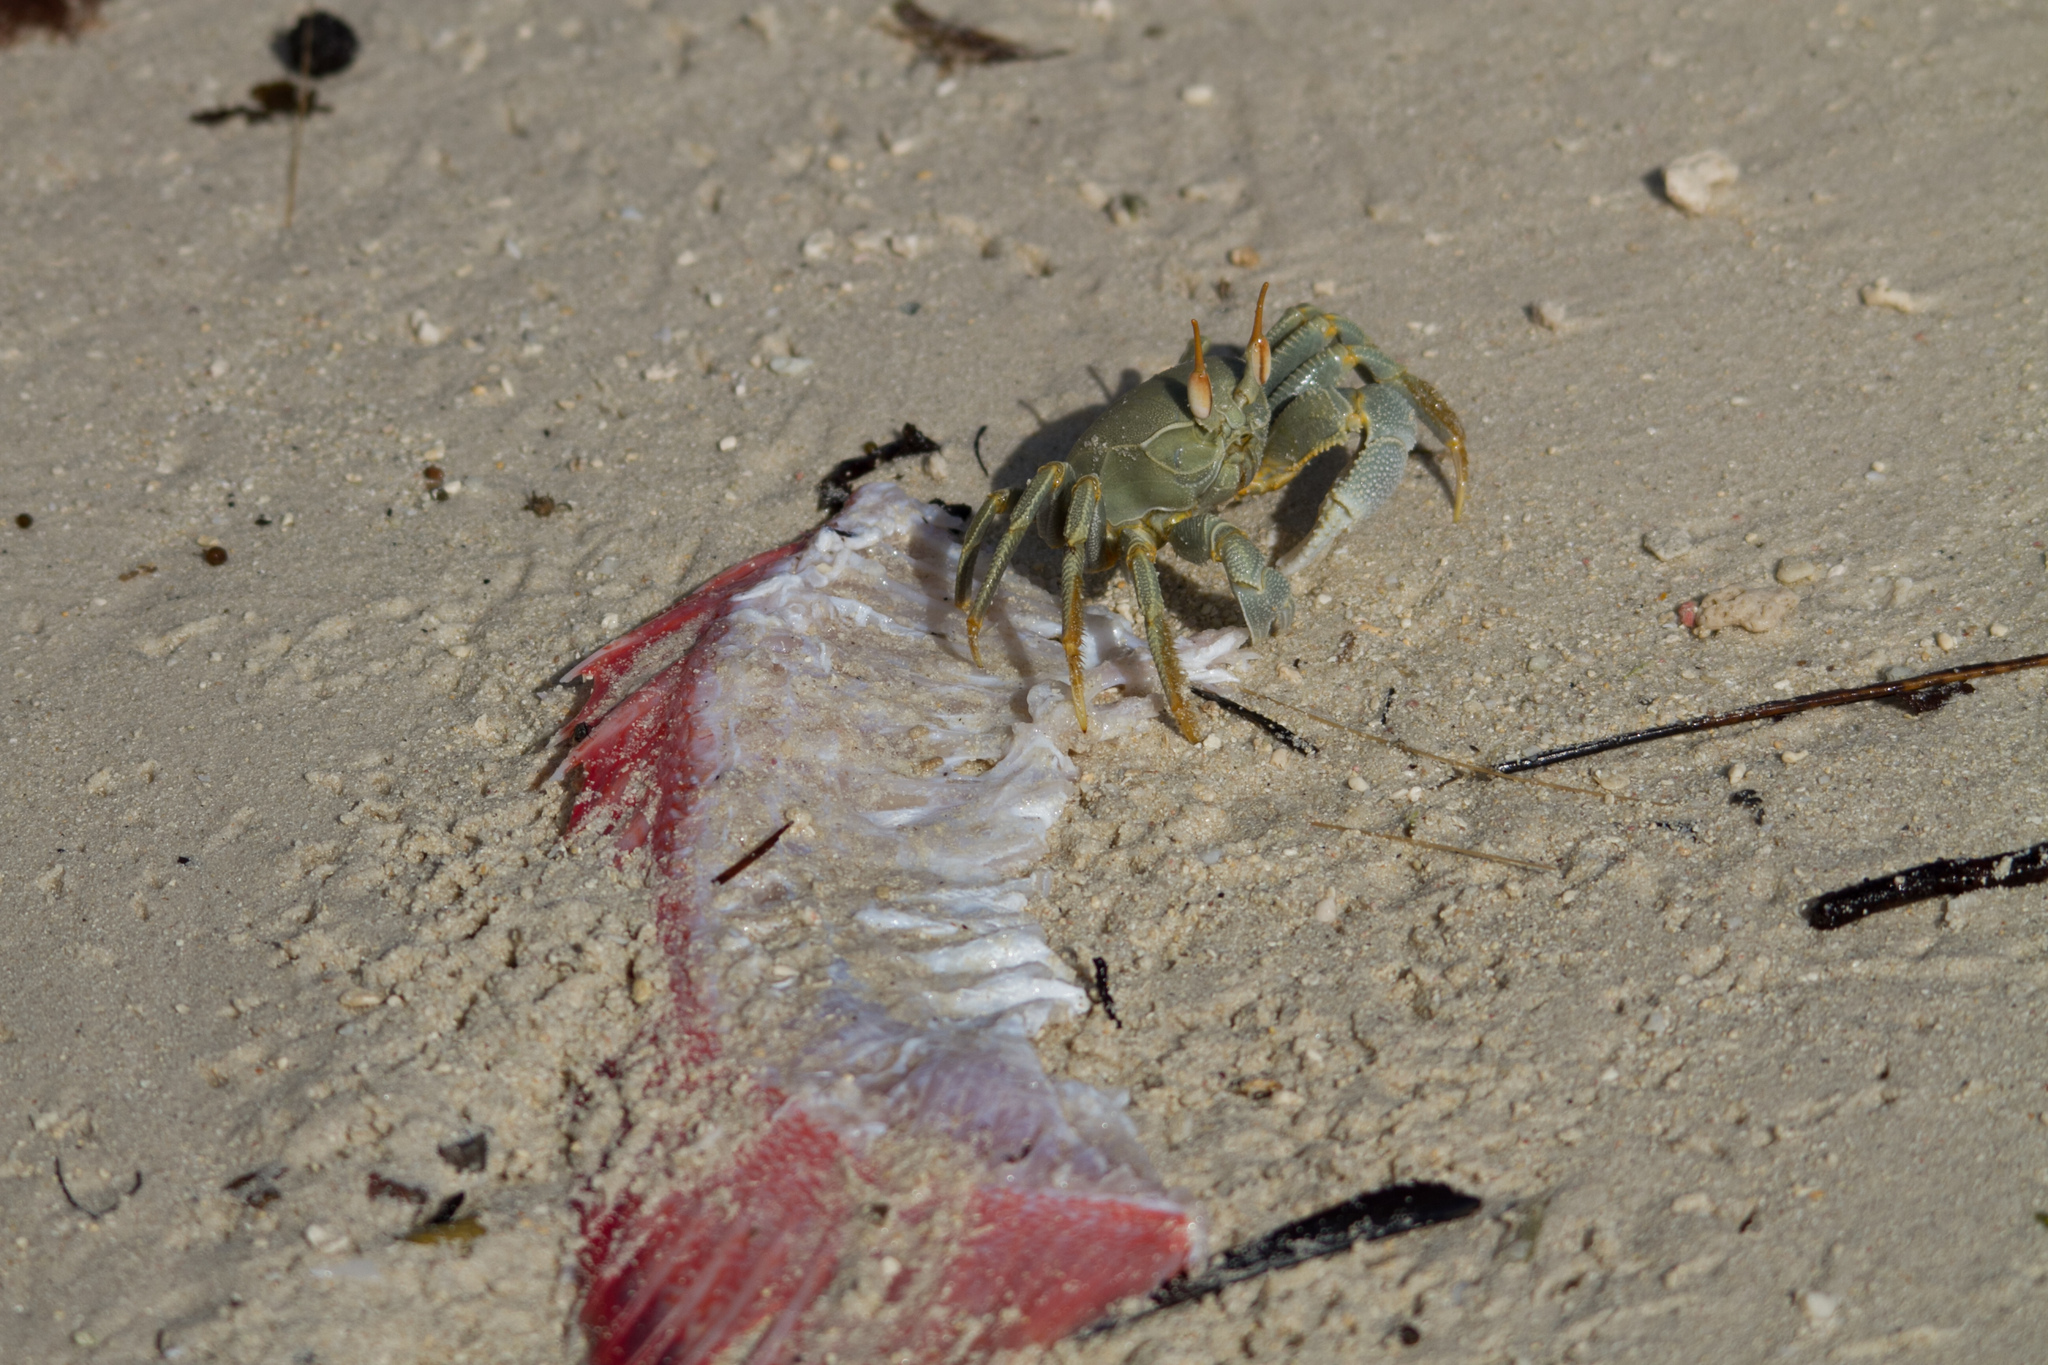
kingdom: Animalia
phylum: Arthropoda
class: Malacostraca
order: Decapoda
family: Ocypodidae
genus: Ocypode
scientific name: Ocypode ceratophthalmus
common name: Indo-pacific ghost crab
